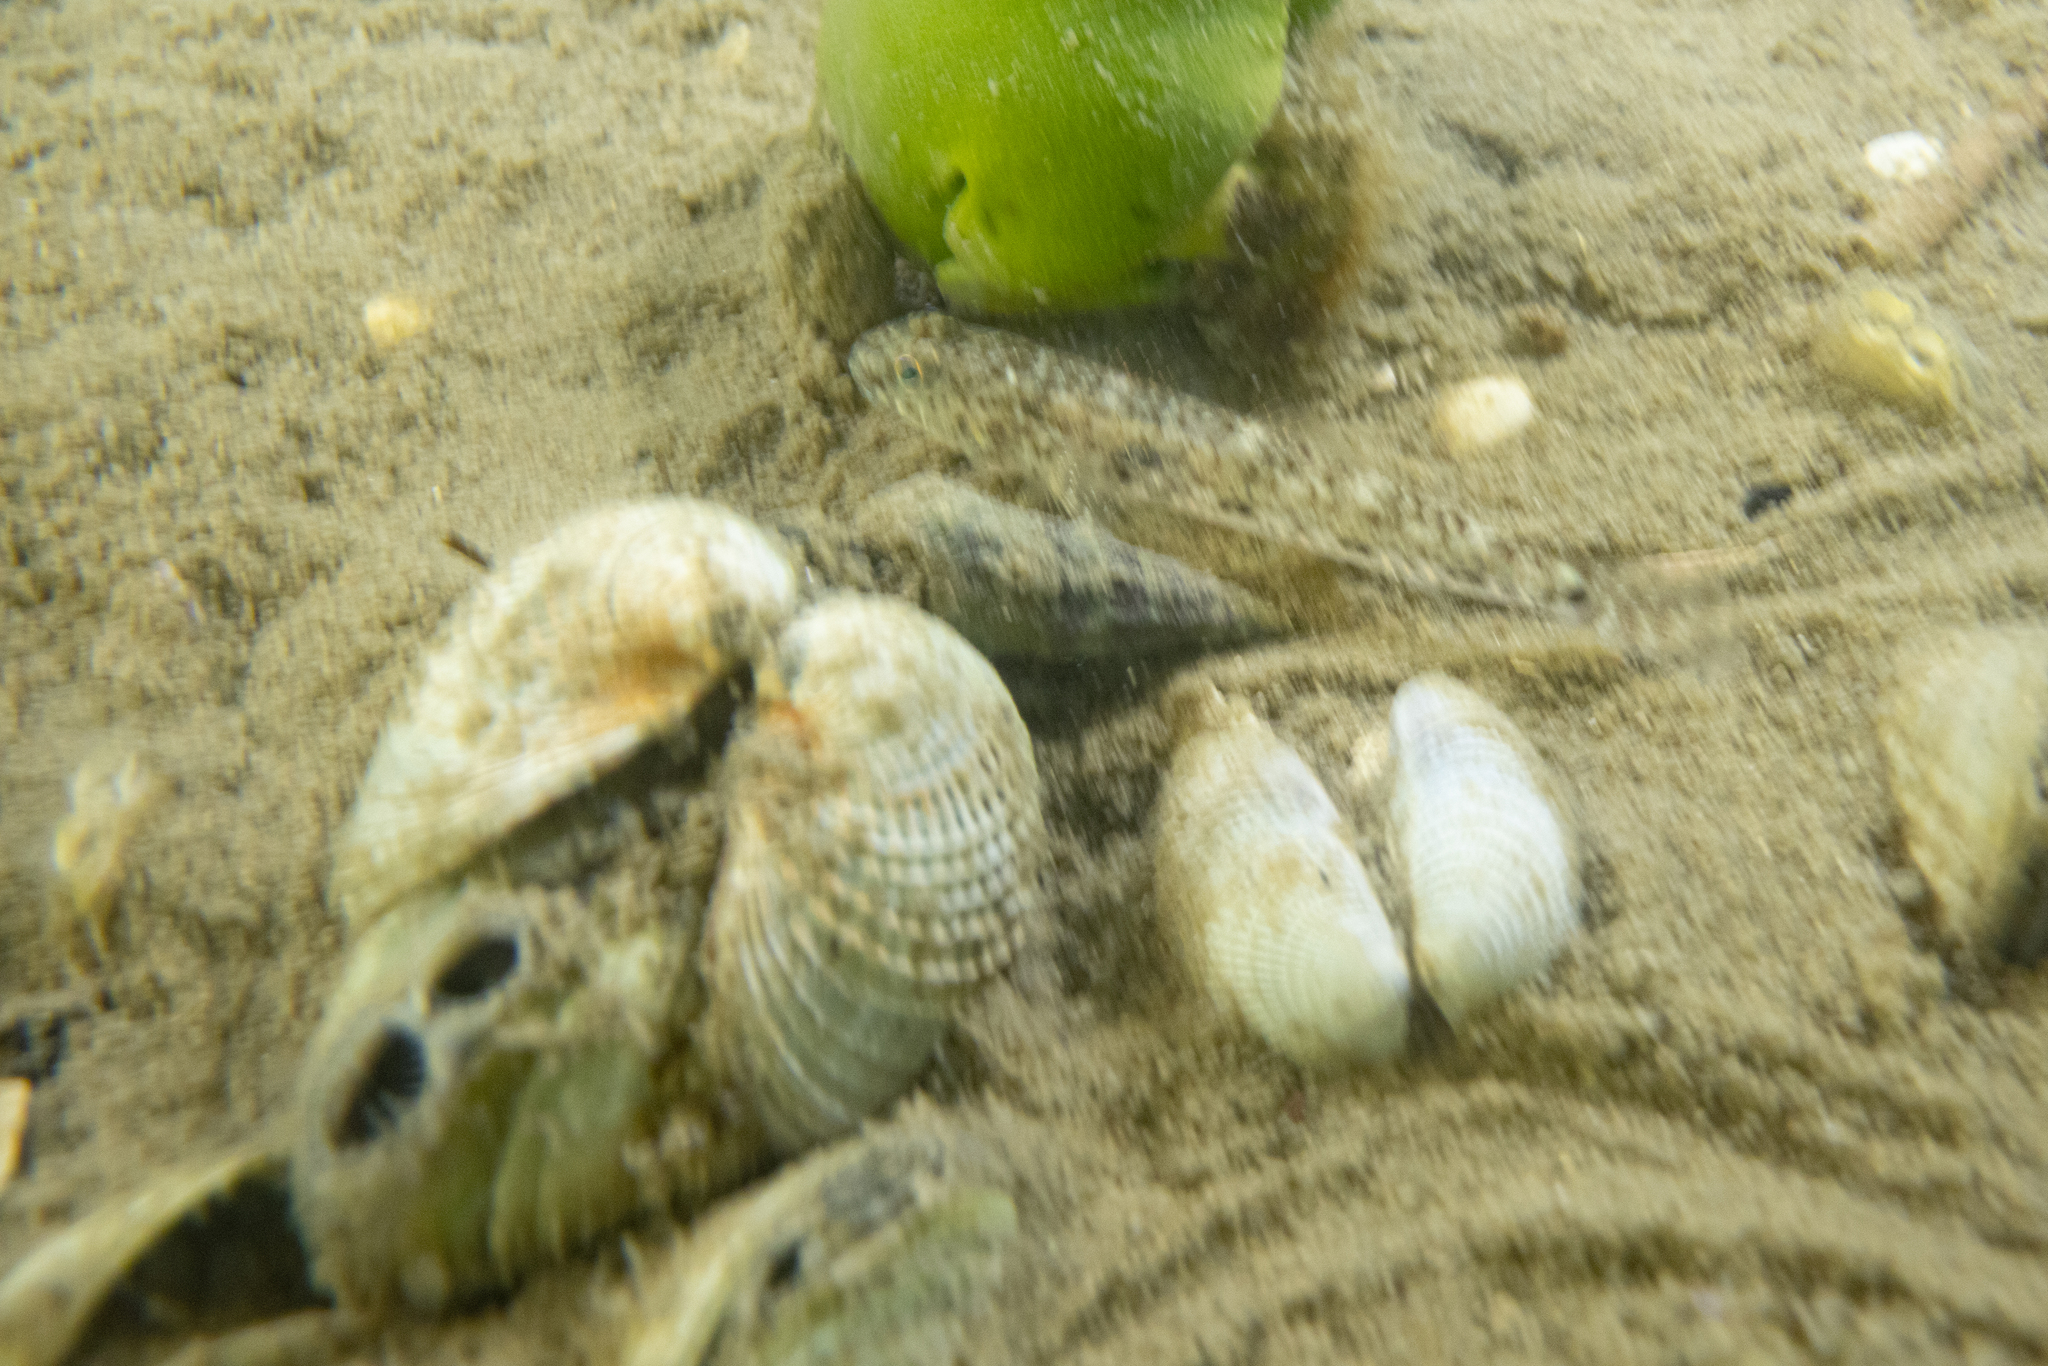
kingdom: Animalia
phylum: Chordata
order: Perciformes
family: Gobiidae
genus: Favonigobius
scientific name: Favonigobius exquisitus
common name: Exquisite sand-goby
